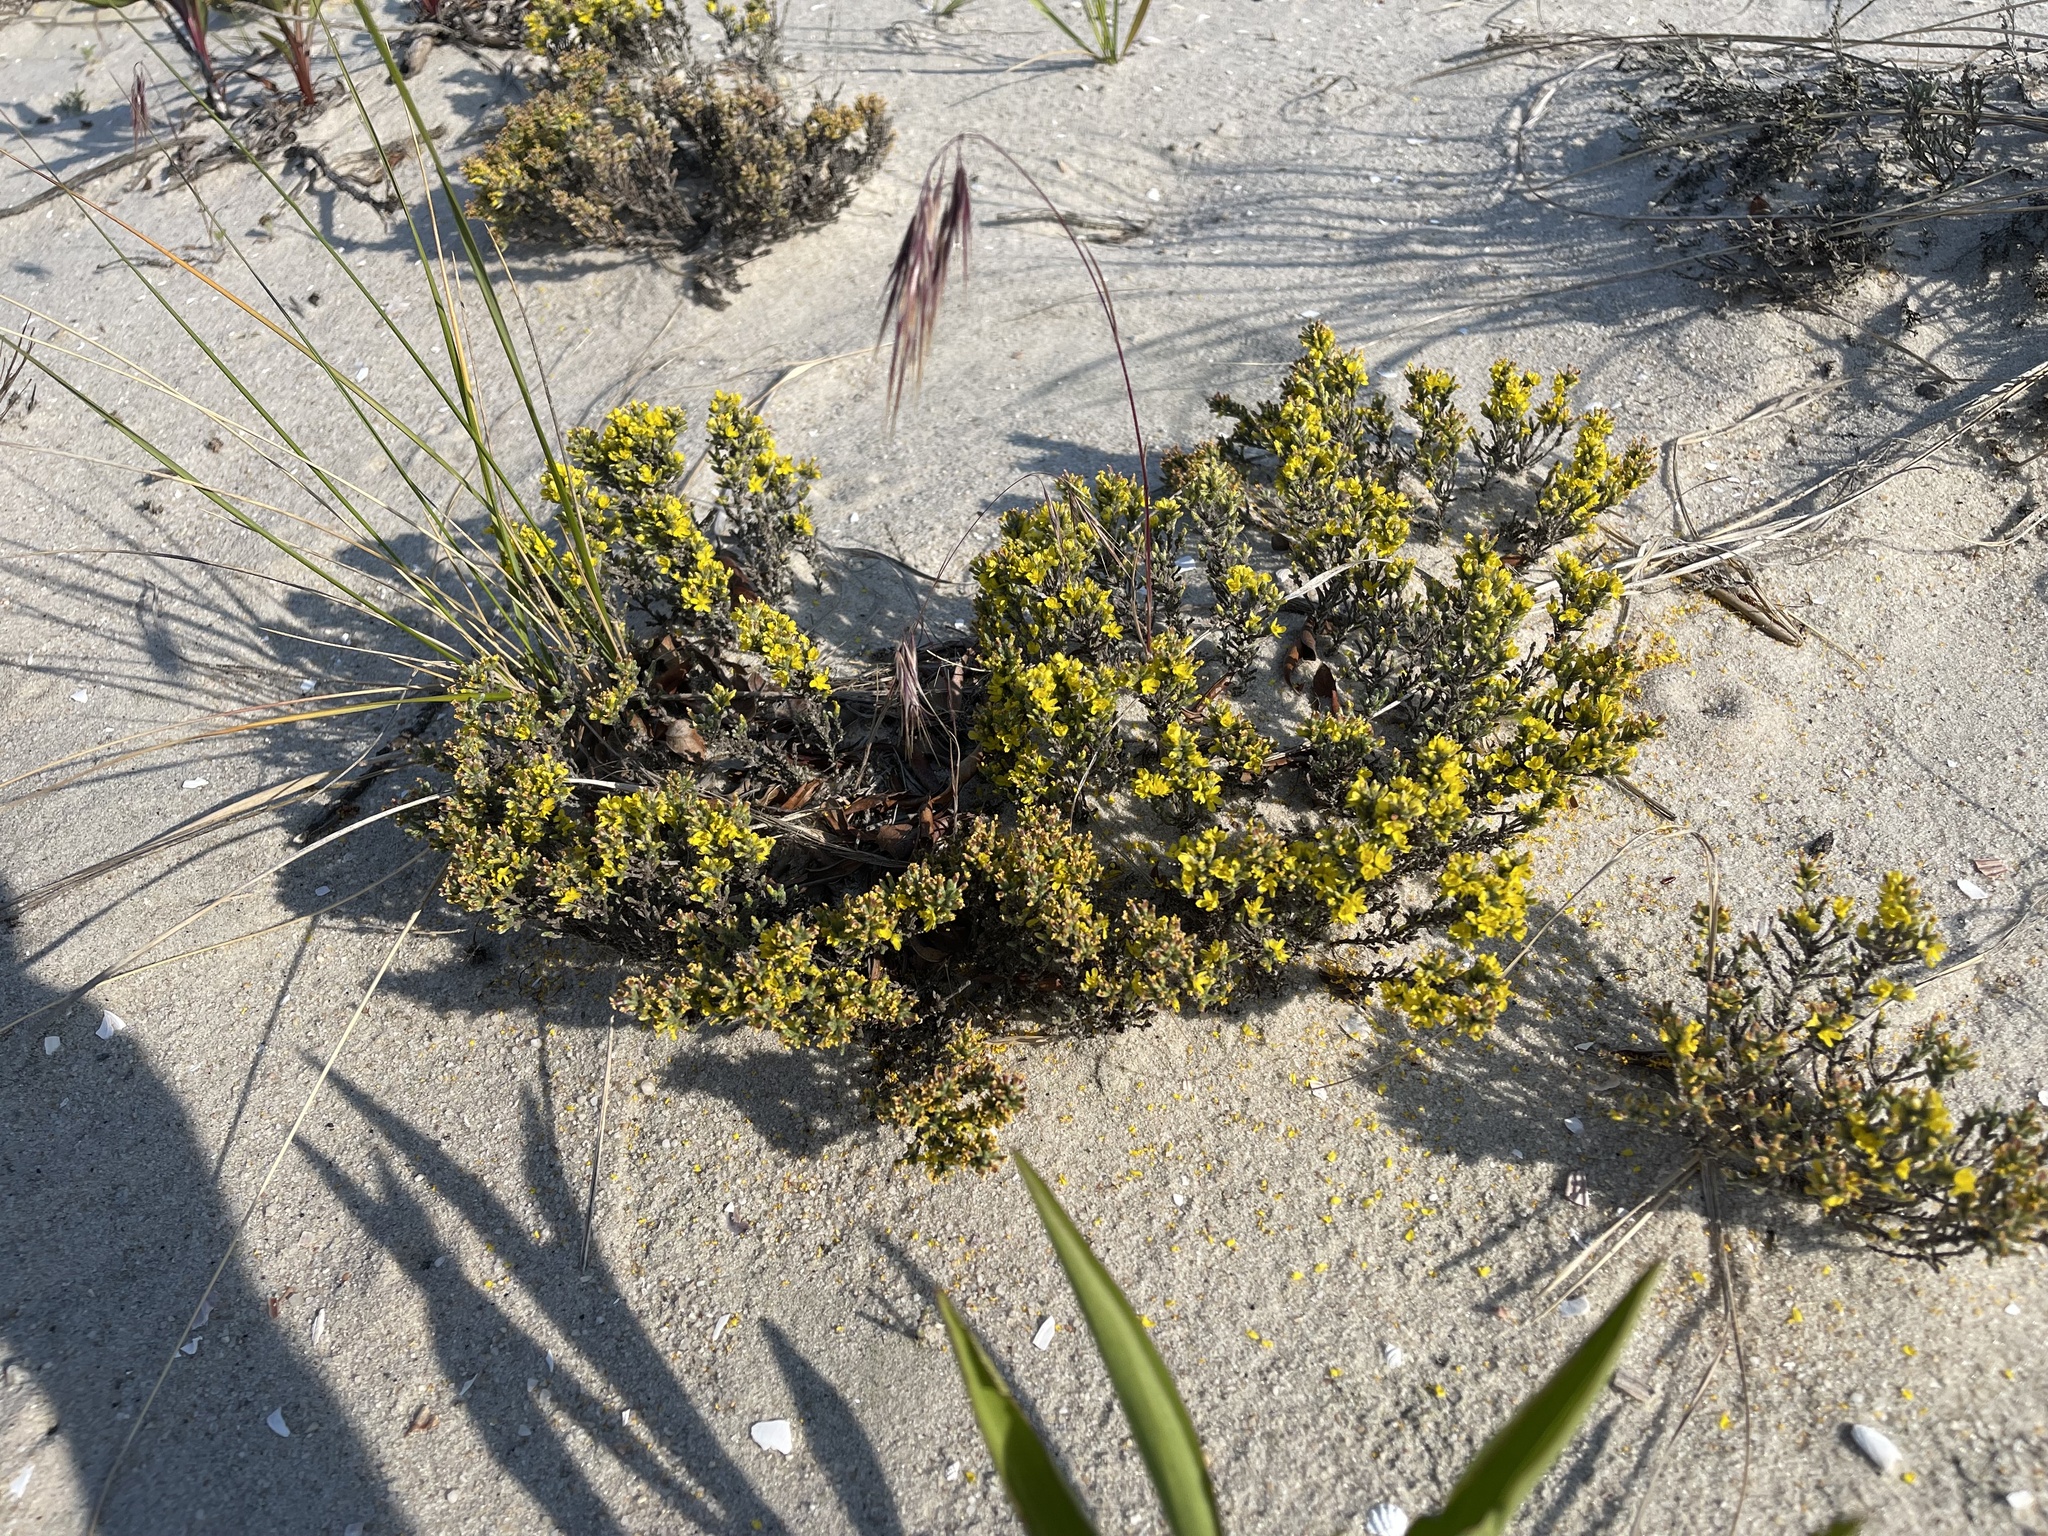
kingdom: Plantae
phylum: Tracheophyta
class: Magnoliopsida
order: Malvales
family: Cistaceae
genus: Hudsonia
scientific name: Hudsonia tomentosa
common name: Beach-heath
